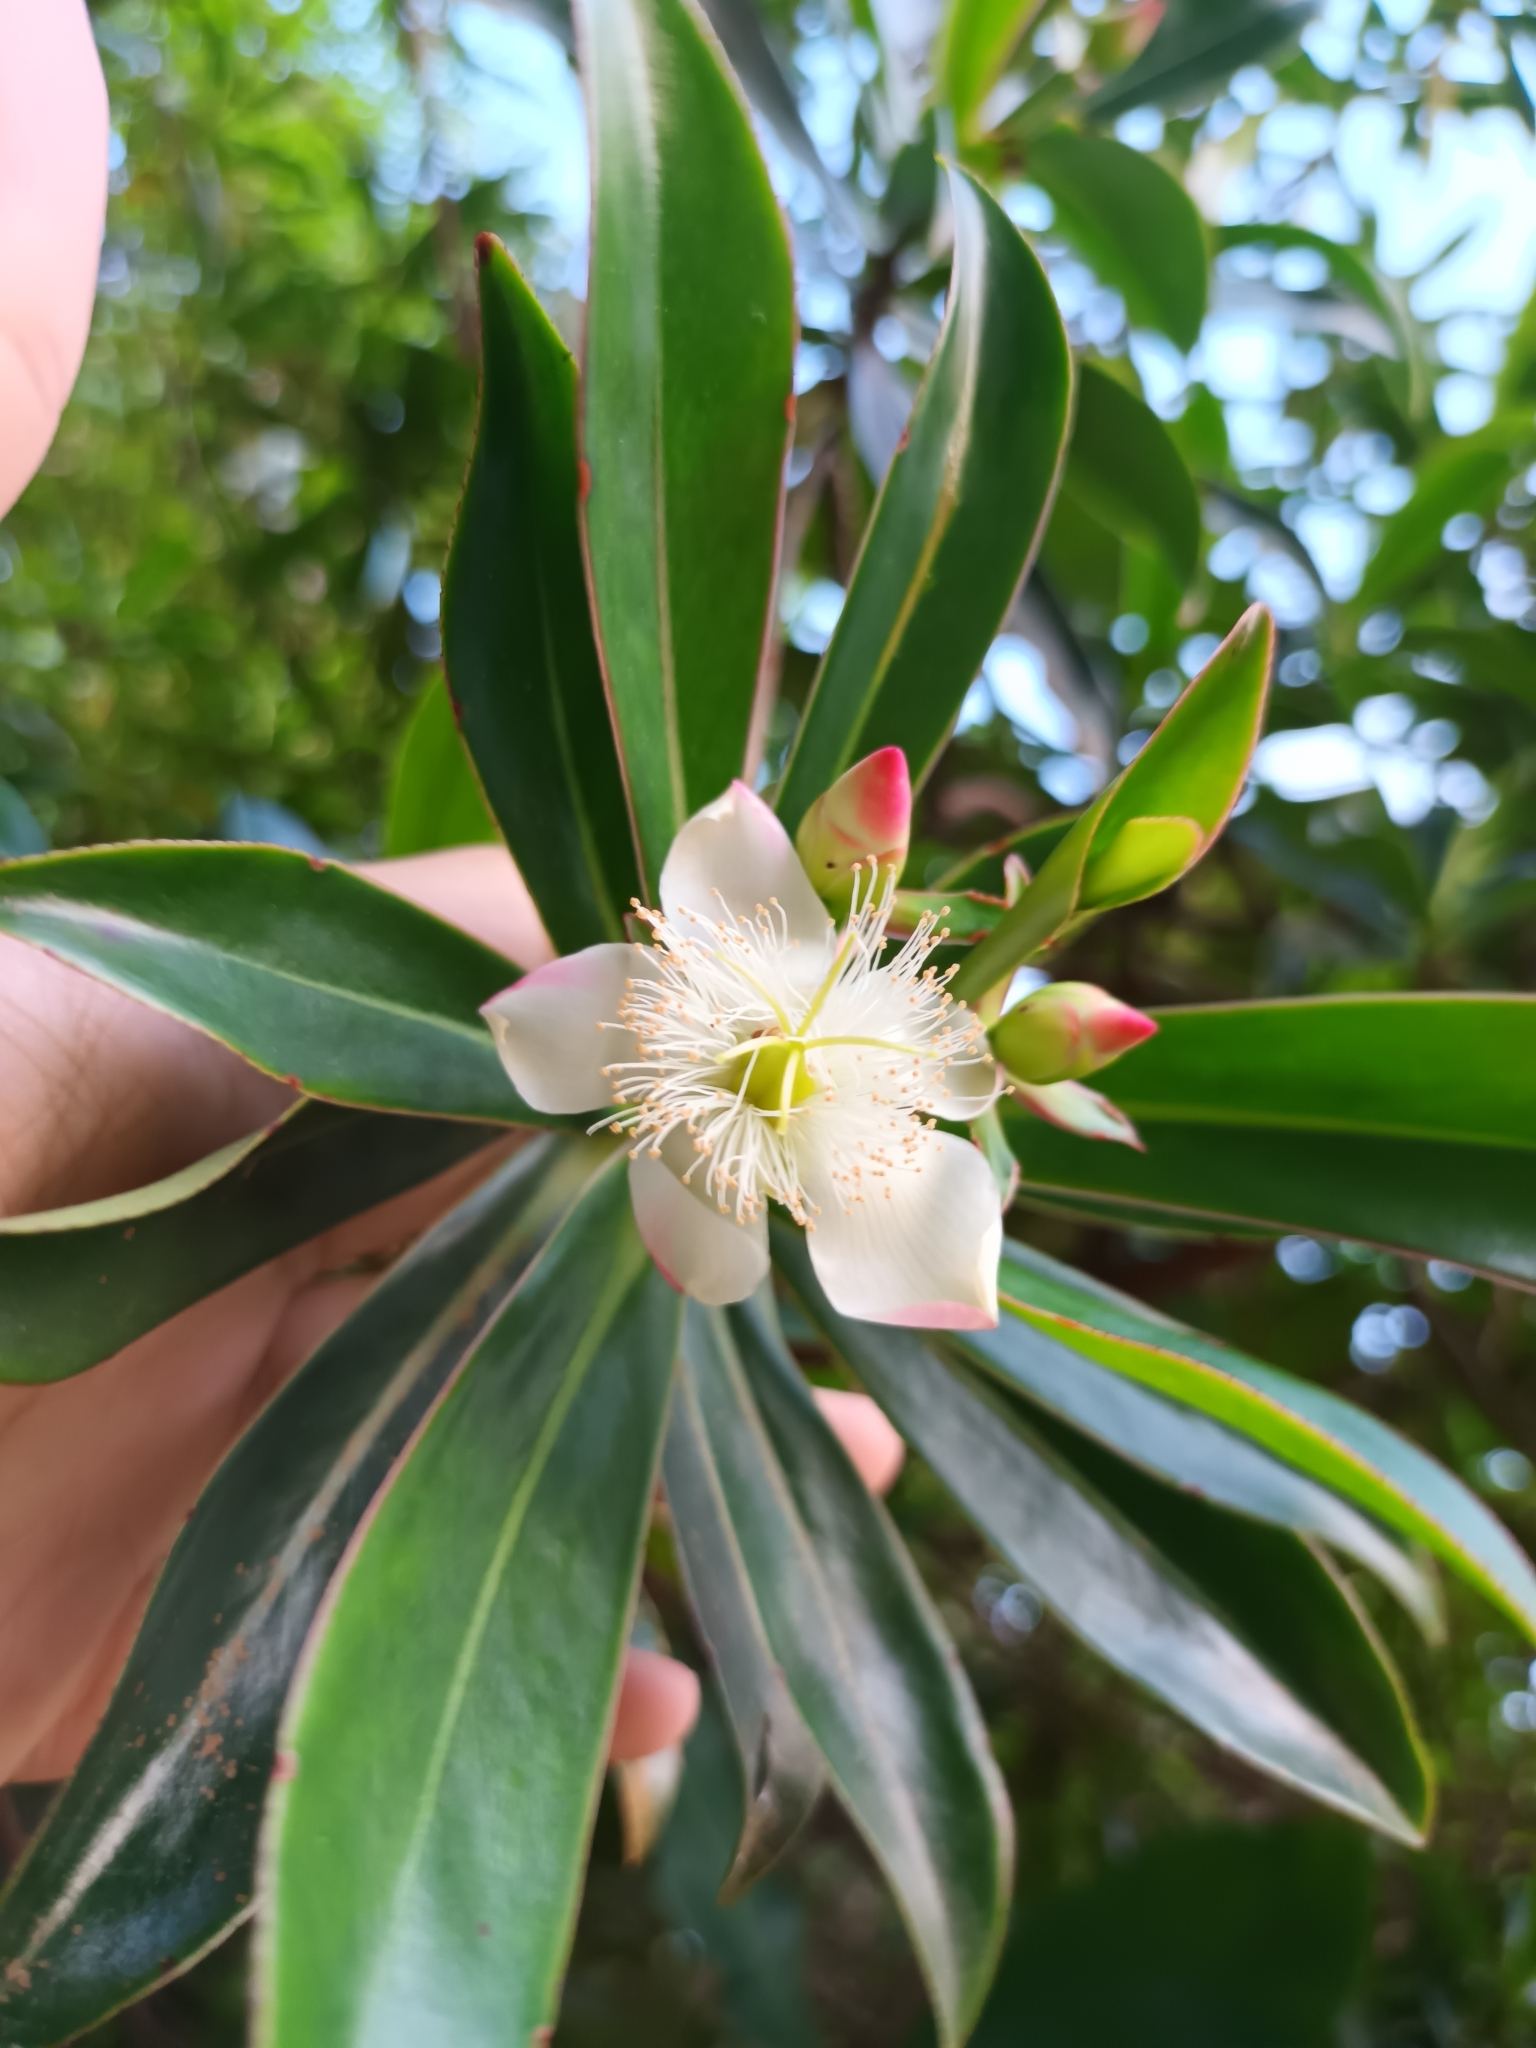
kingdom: Plantae
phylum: Tracheophyta
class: Magnoliopsida
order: Malpighiales
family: Bonnetiaceae
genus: Ploiarium
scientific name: Ploiarium elegans
